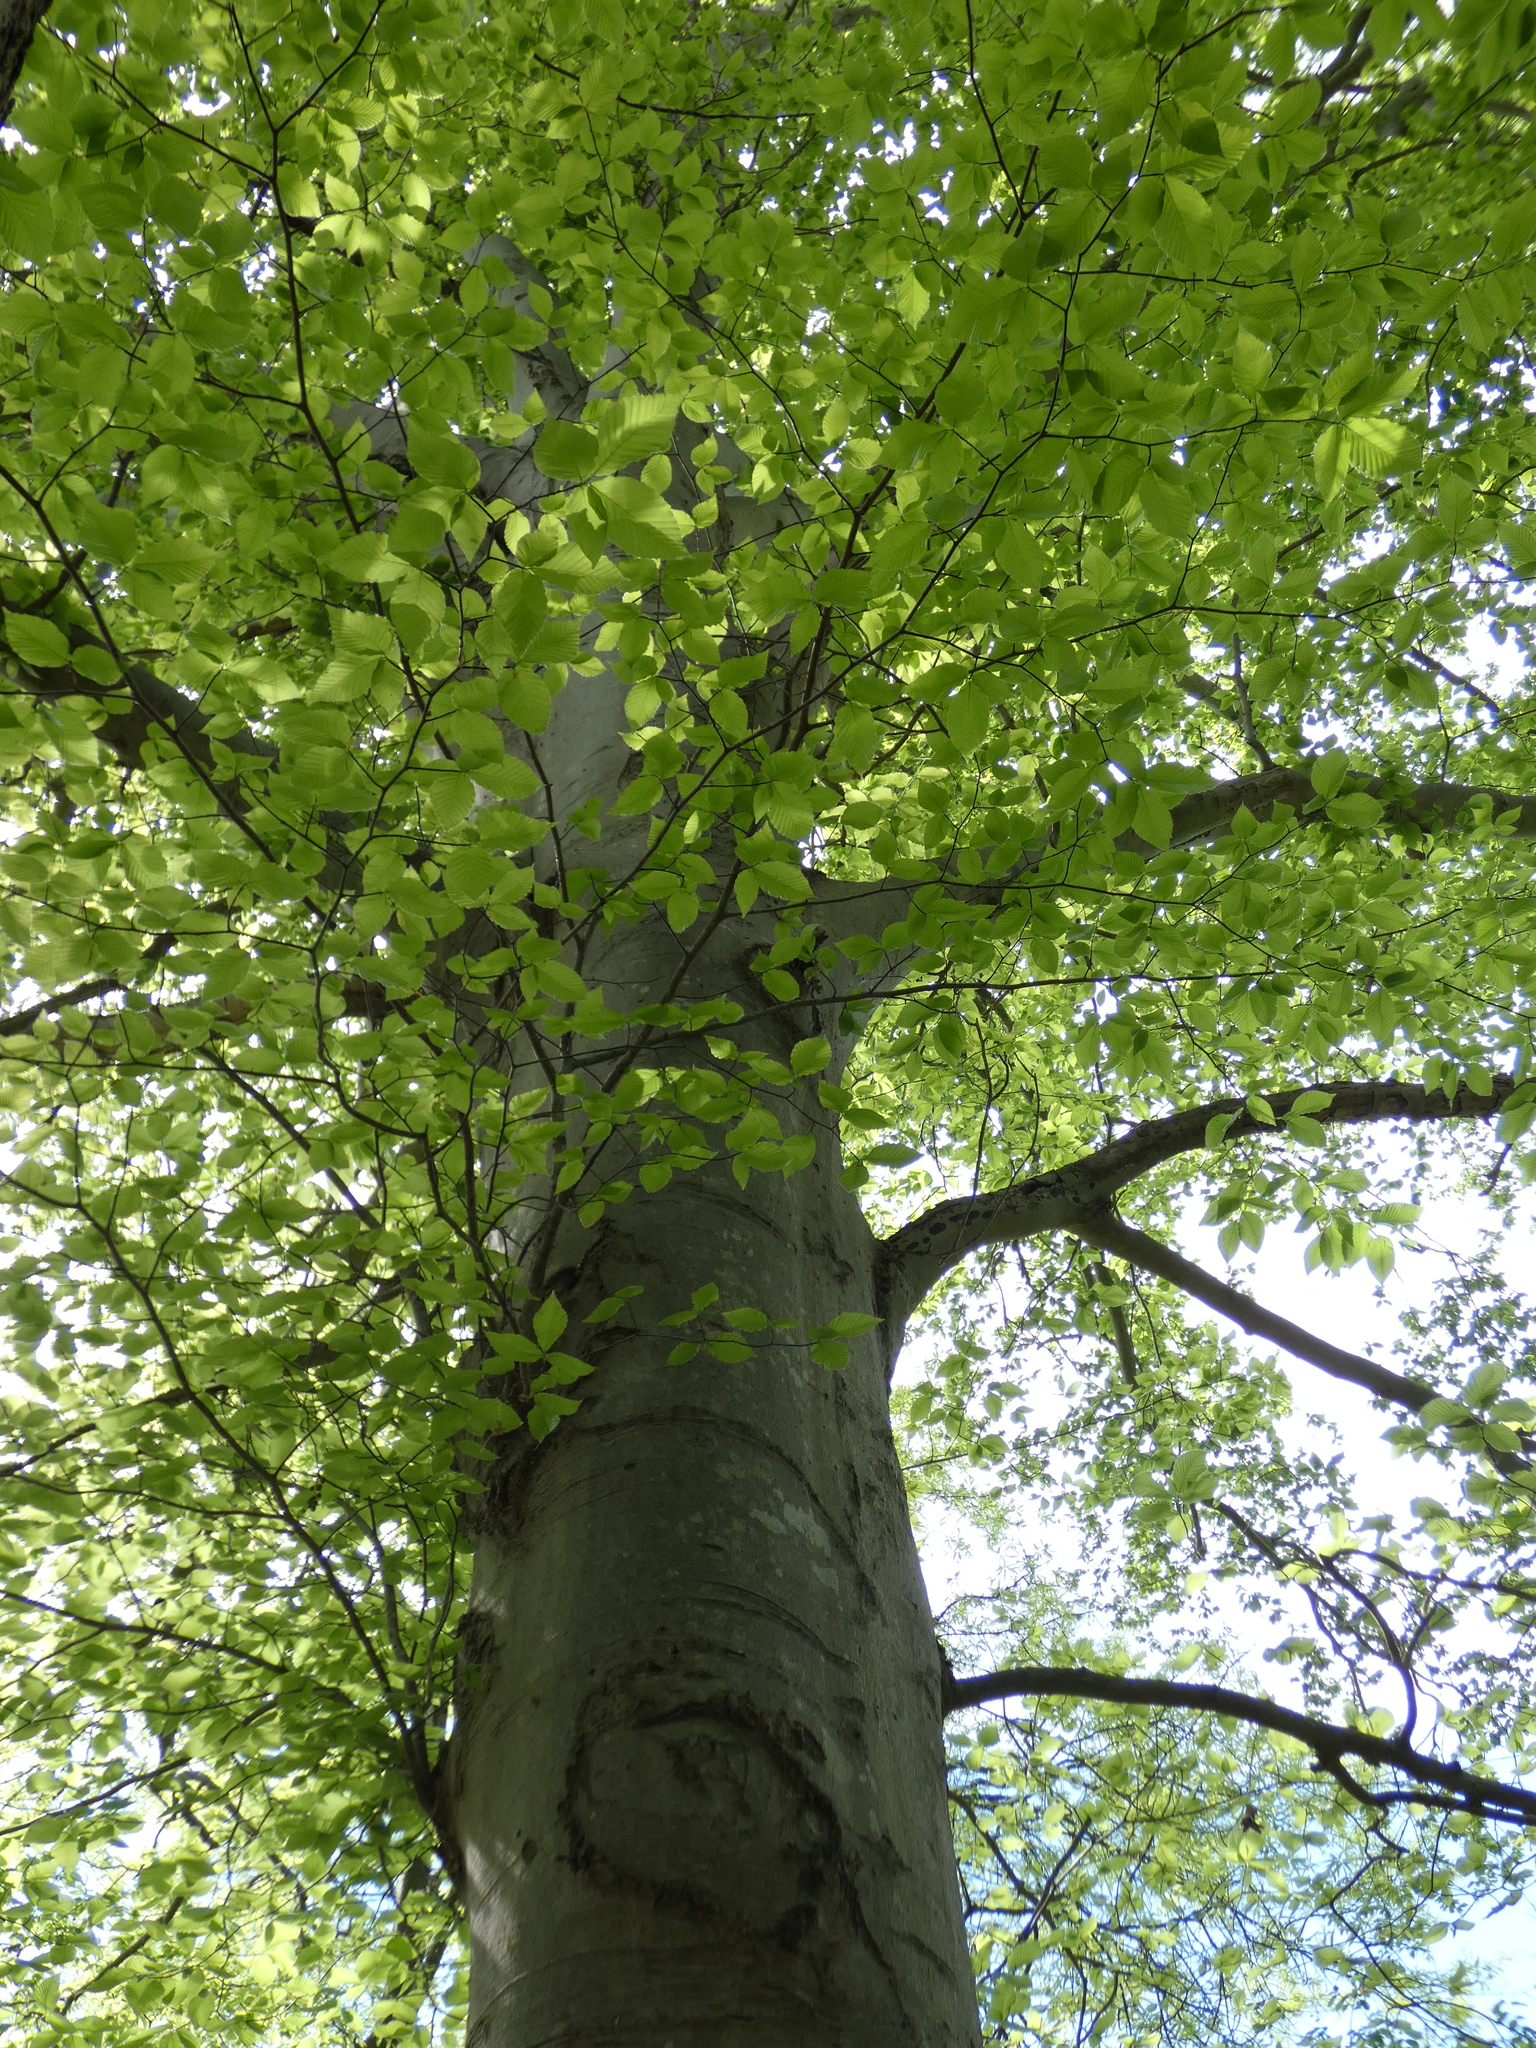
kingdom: Plantae
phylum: Tracheophyta
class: Magnoliopsida
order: Fagales
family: Fagaceae
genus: Fagus
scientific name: Fagus grandifolia
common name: American beech
